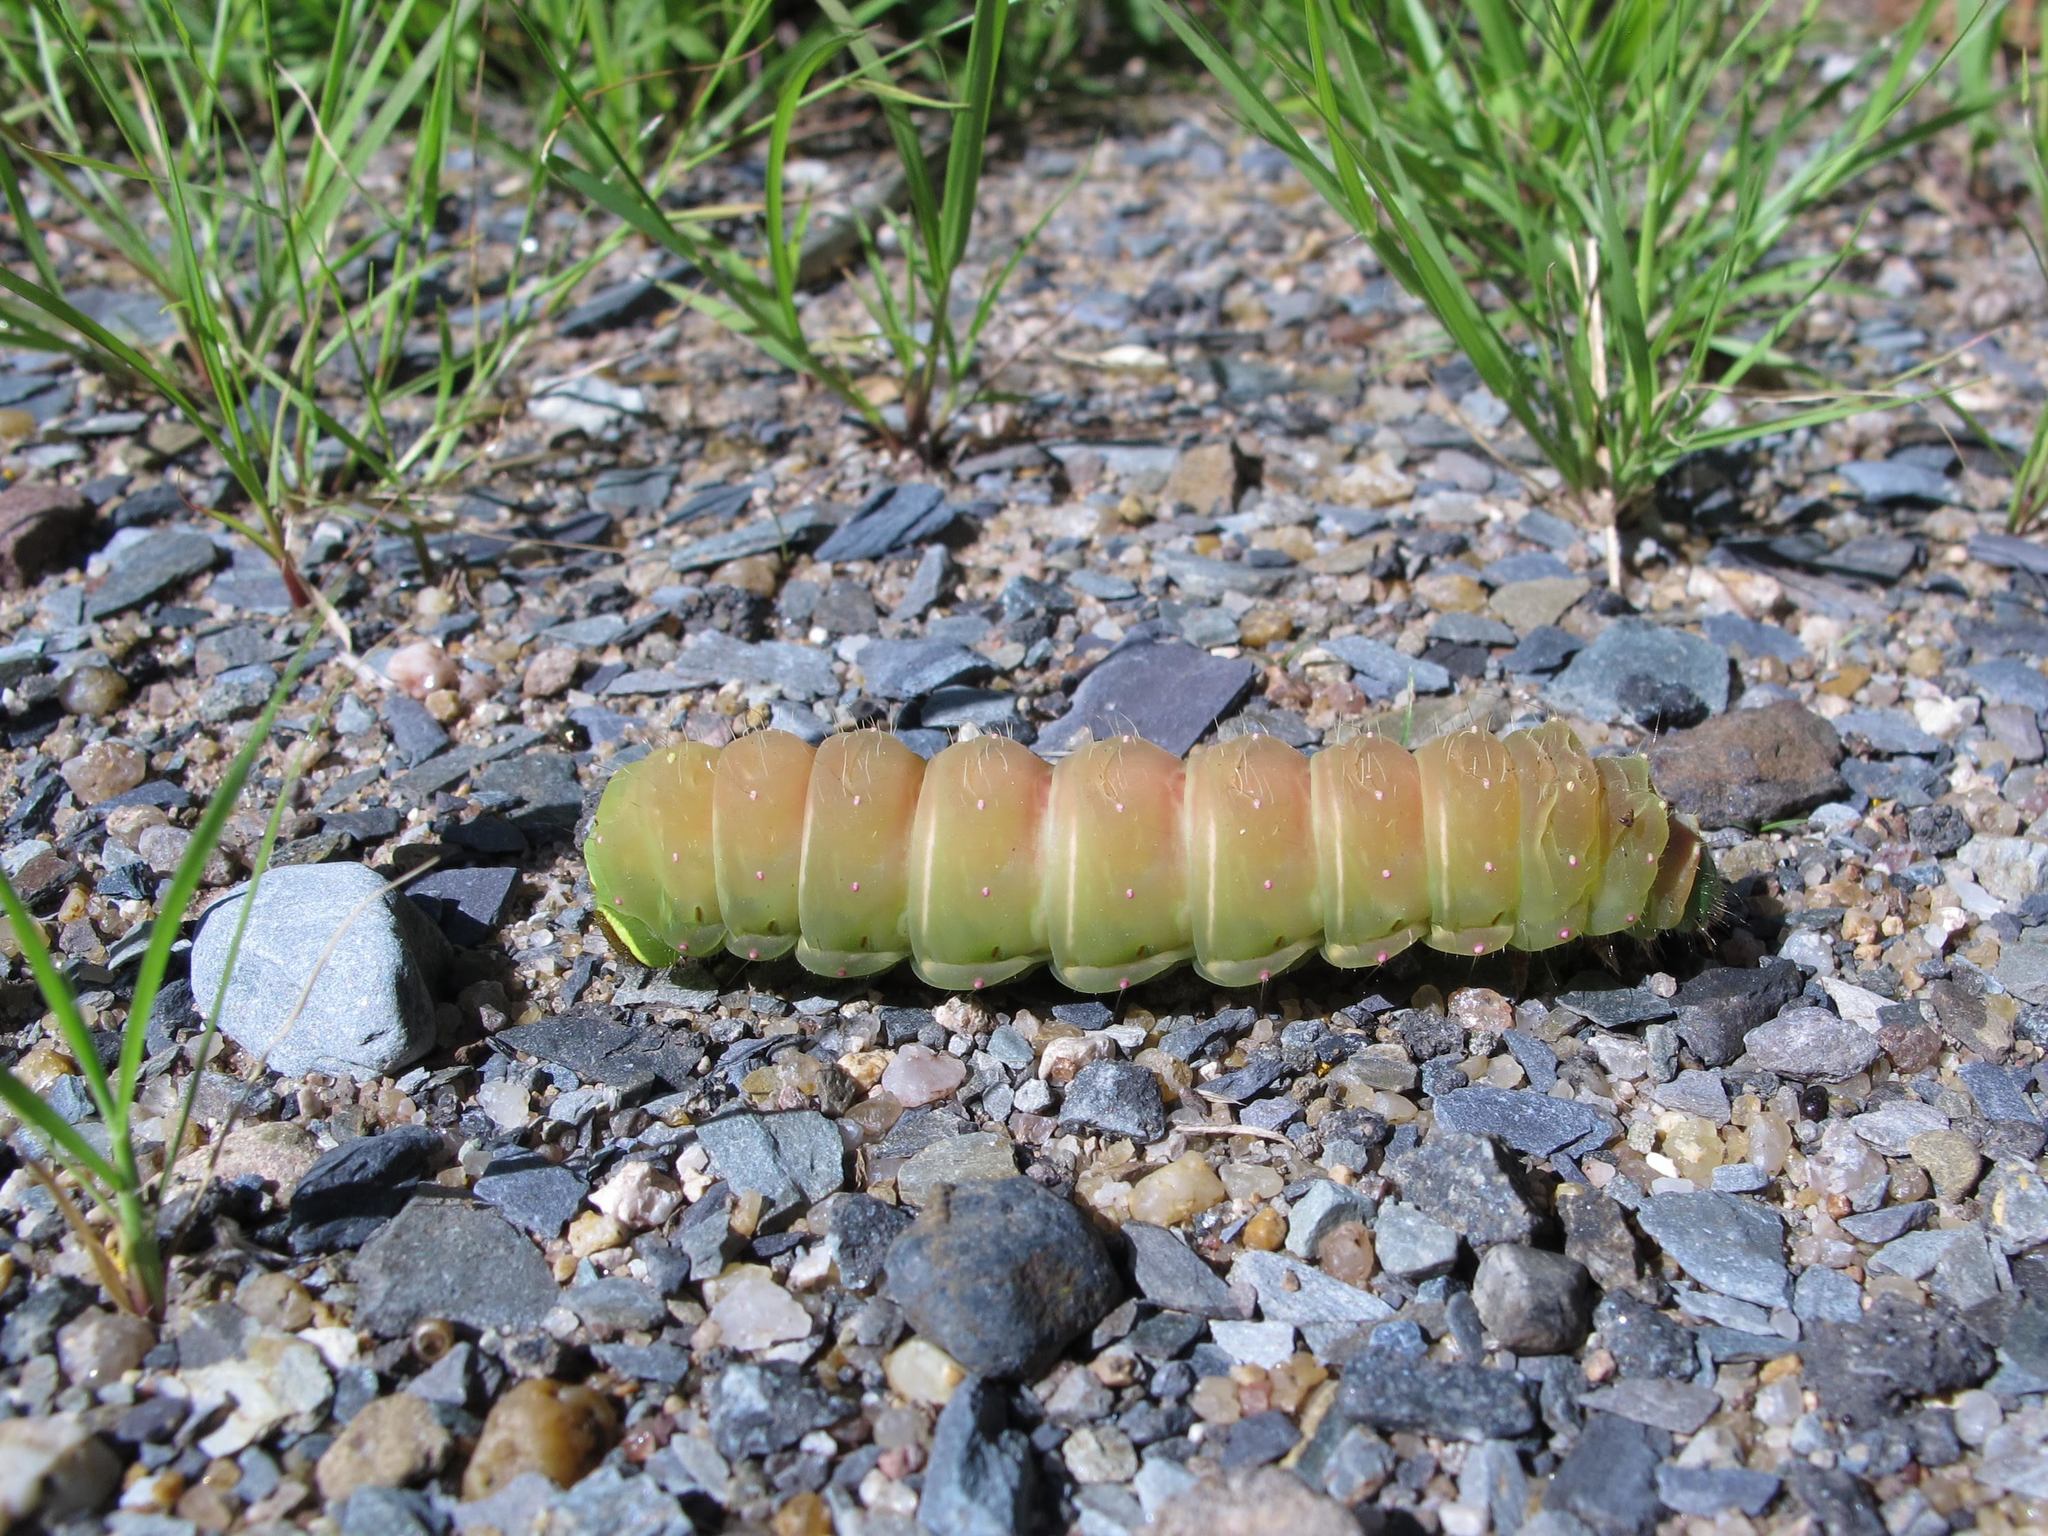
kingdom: Animalia
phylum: Arthropoda
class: Insecta
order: Lepidoptera
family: Saturniidae
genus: Actias
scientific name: Actias luna
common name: Luna moth
